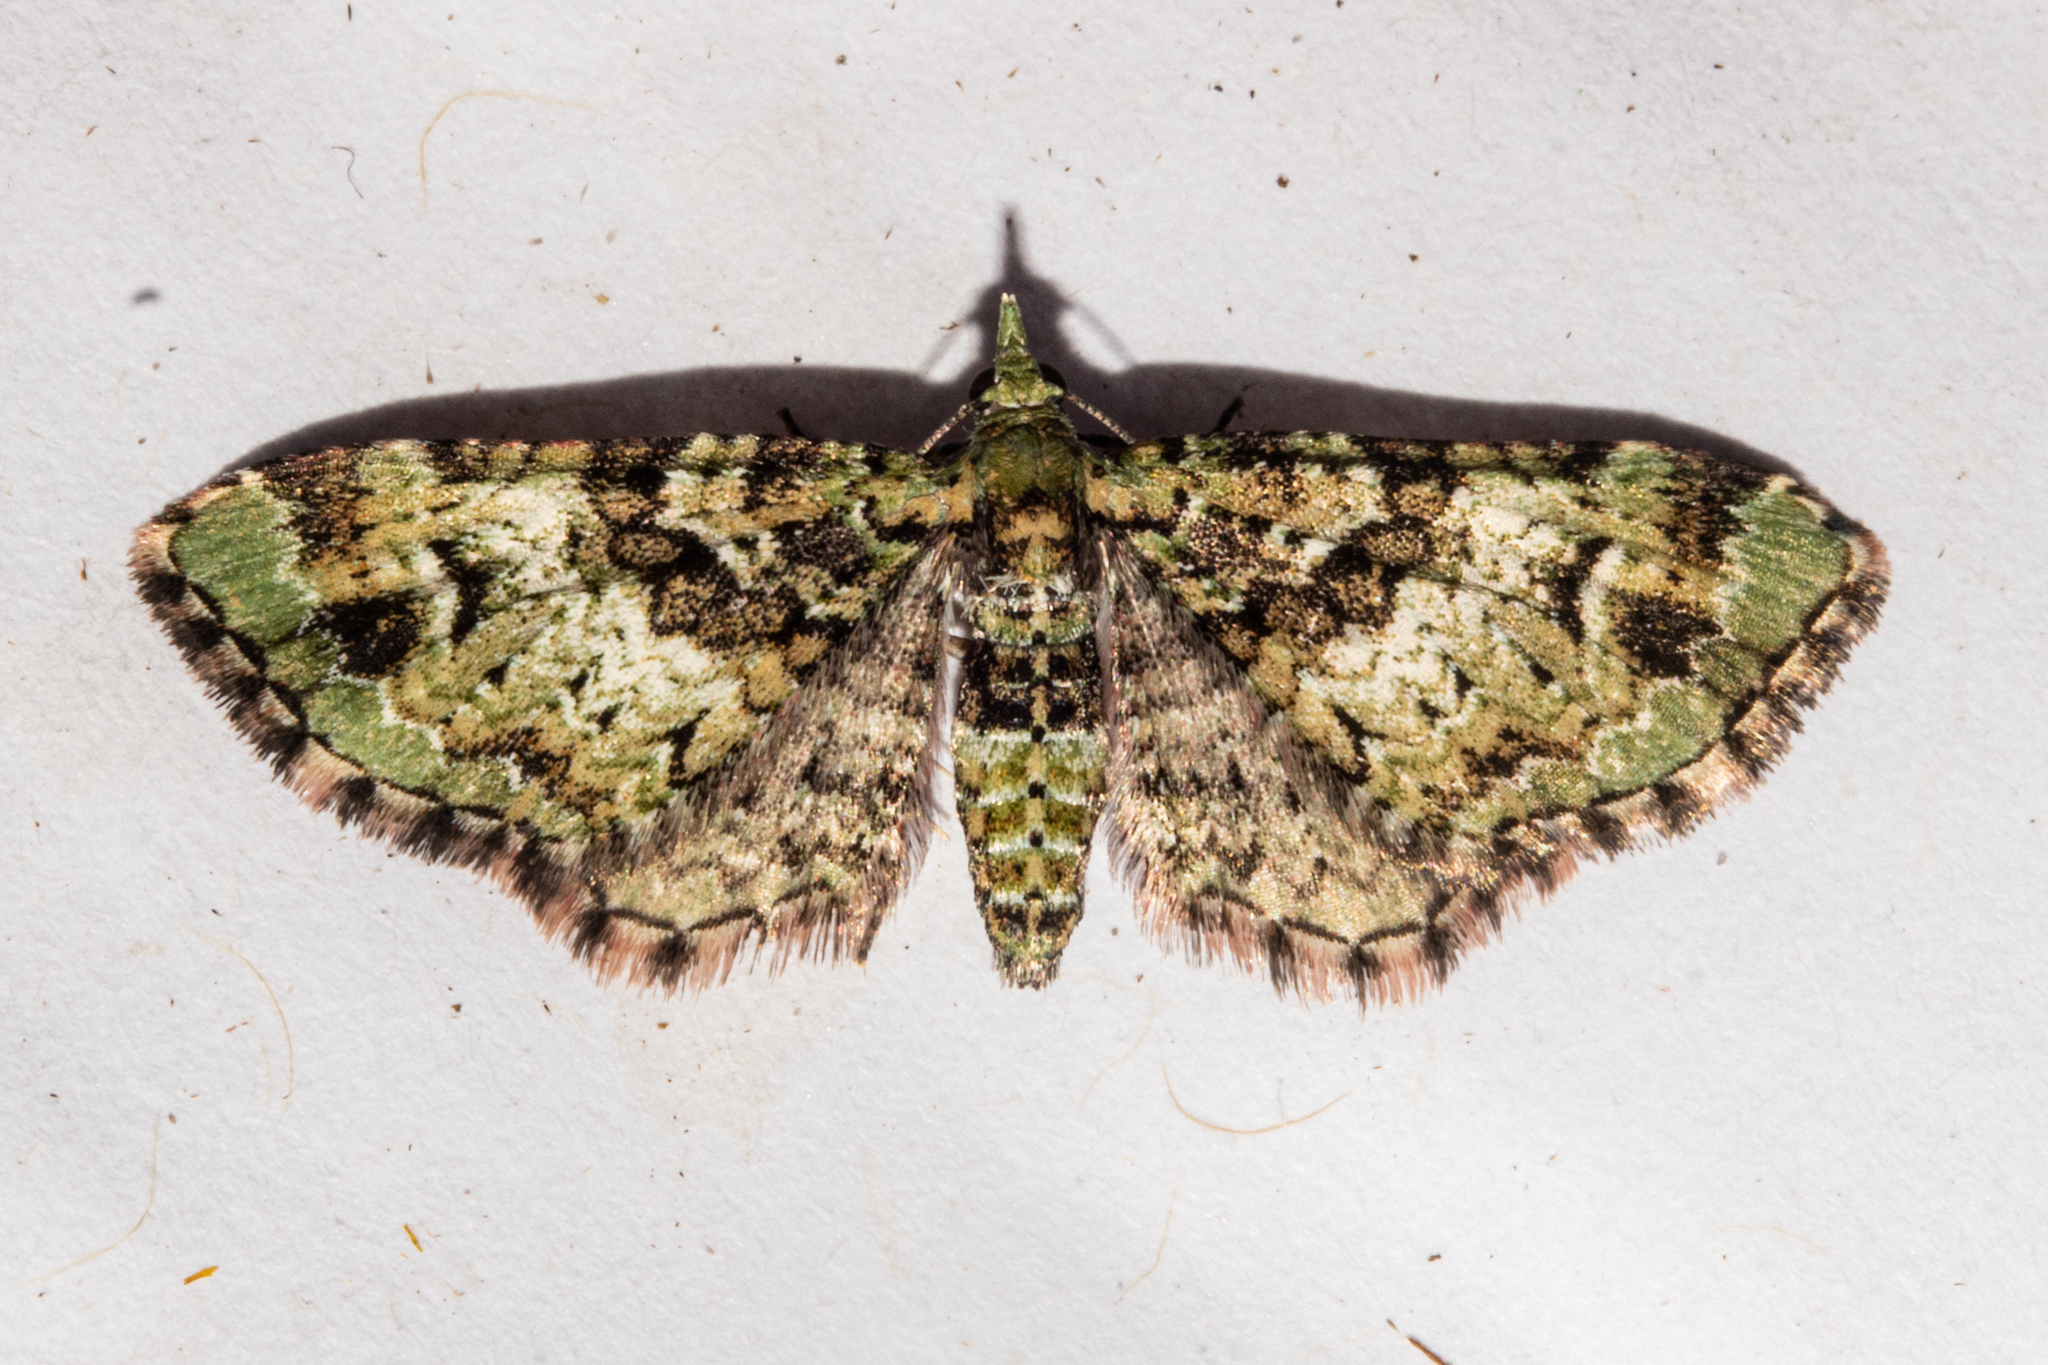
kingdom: Animalia
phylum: Arthropoda
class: Insecta
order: Lepidoptera
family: Geometridae
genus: Pasiphila
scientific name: Pasiphila bilineolata
